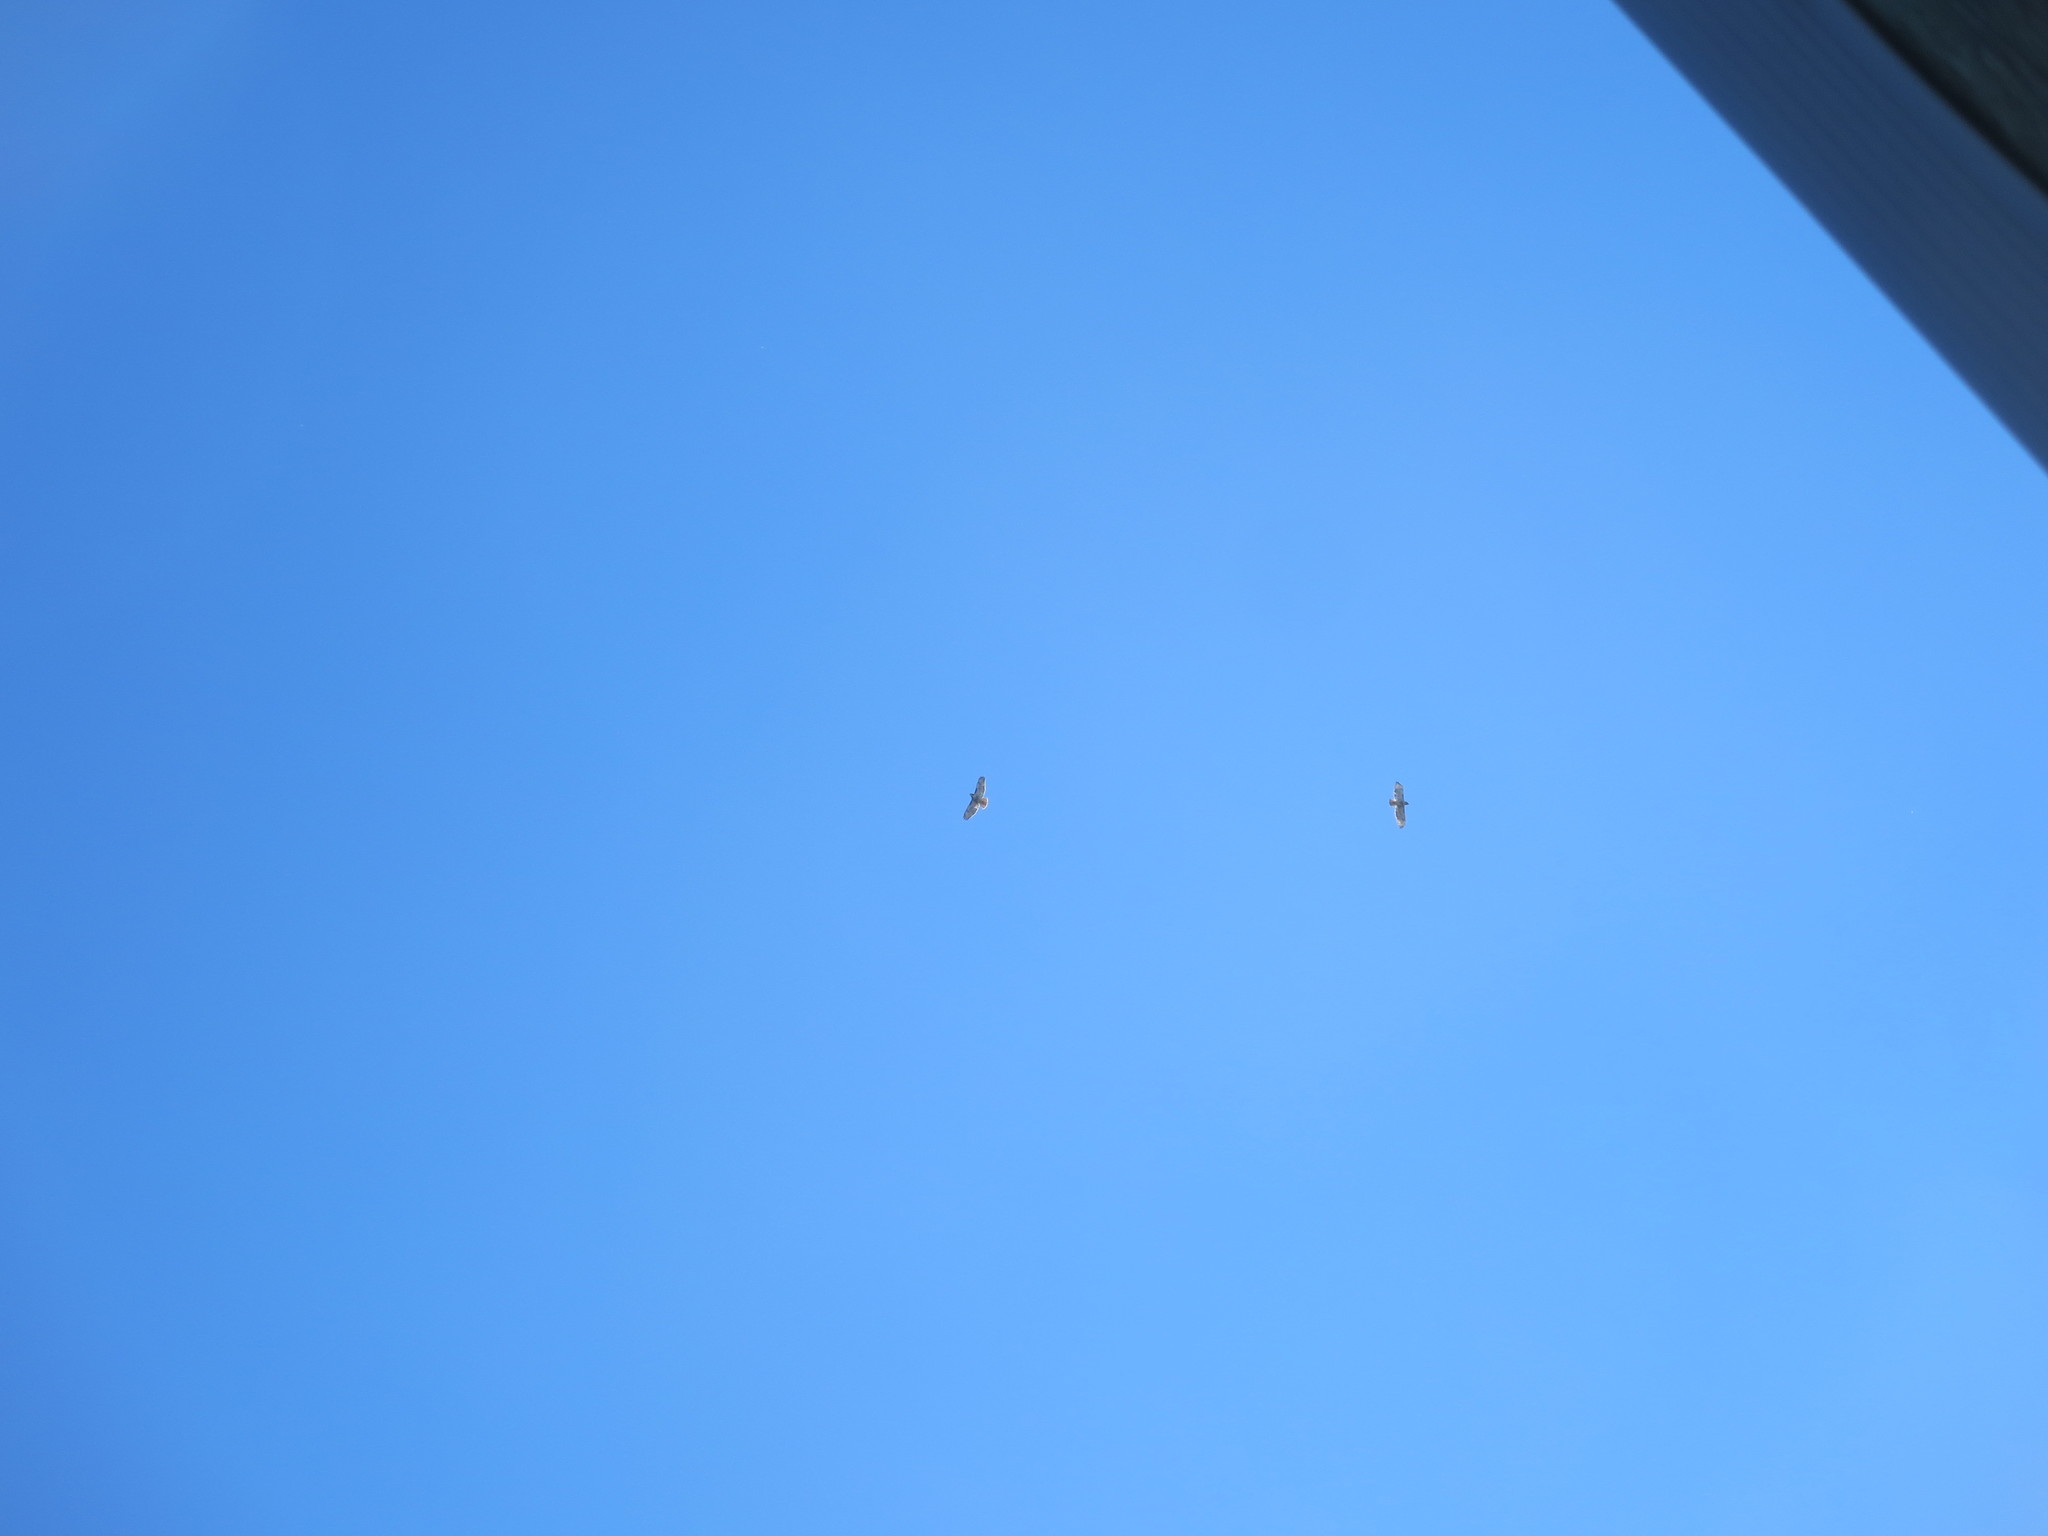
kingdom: Animalia
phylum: Chordata
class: Aves
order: Accipitriformes
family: Accipitridae
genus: Buteo
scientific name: Buteo jamaicensis
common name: Red-tailed hawk
